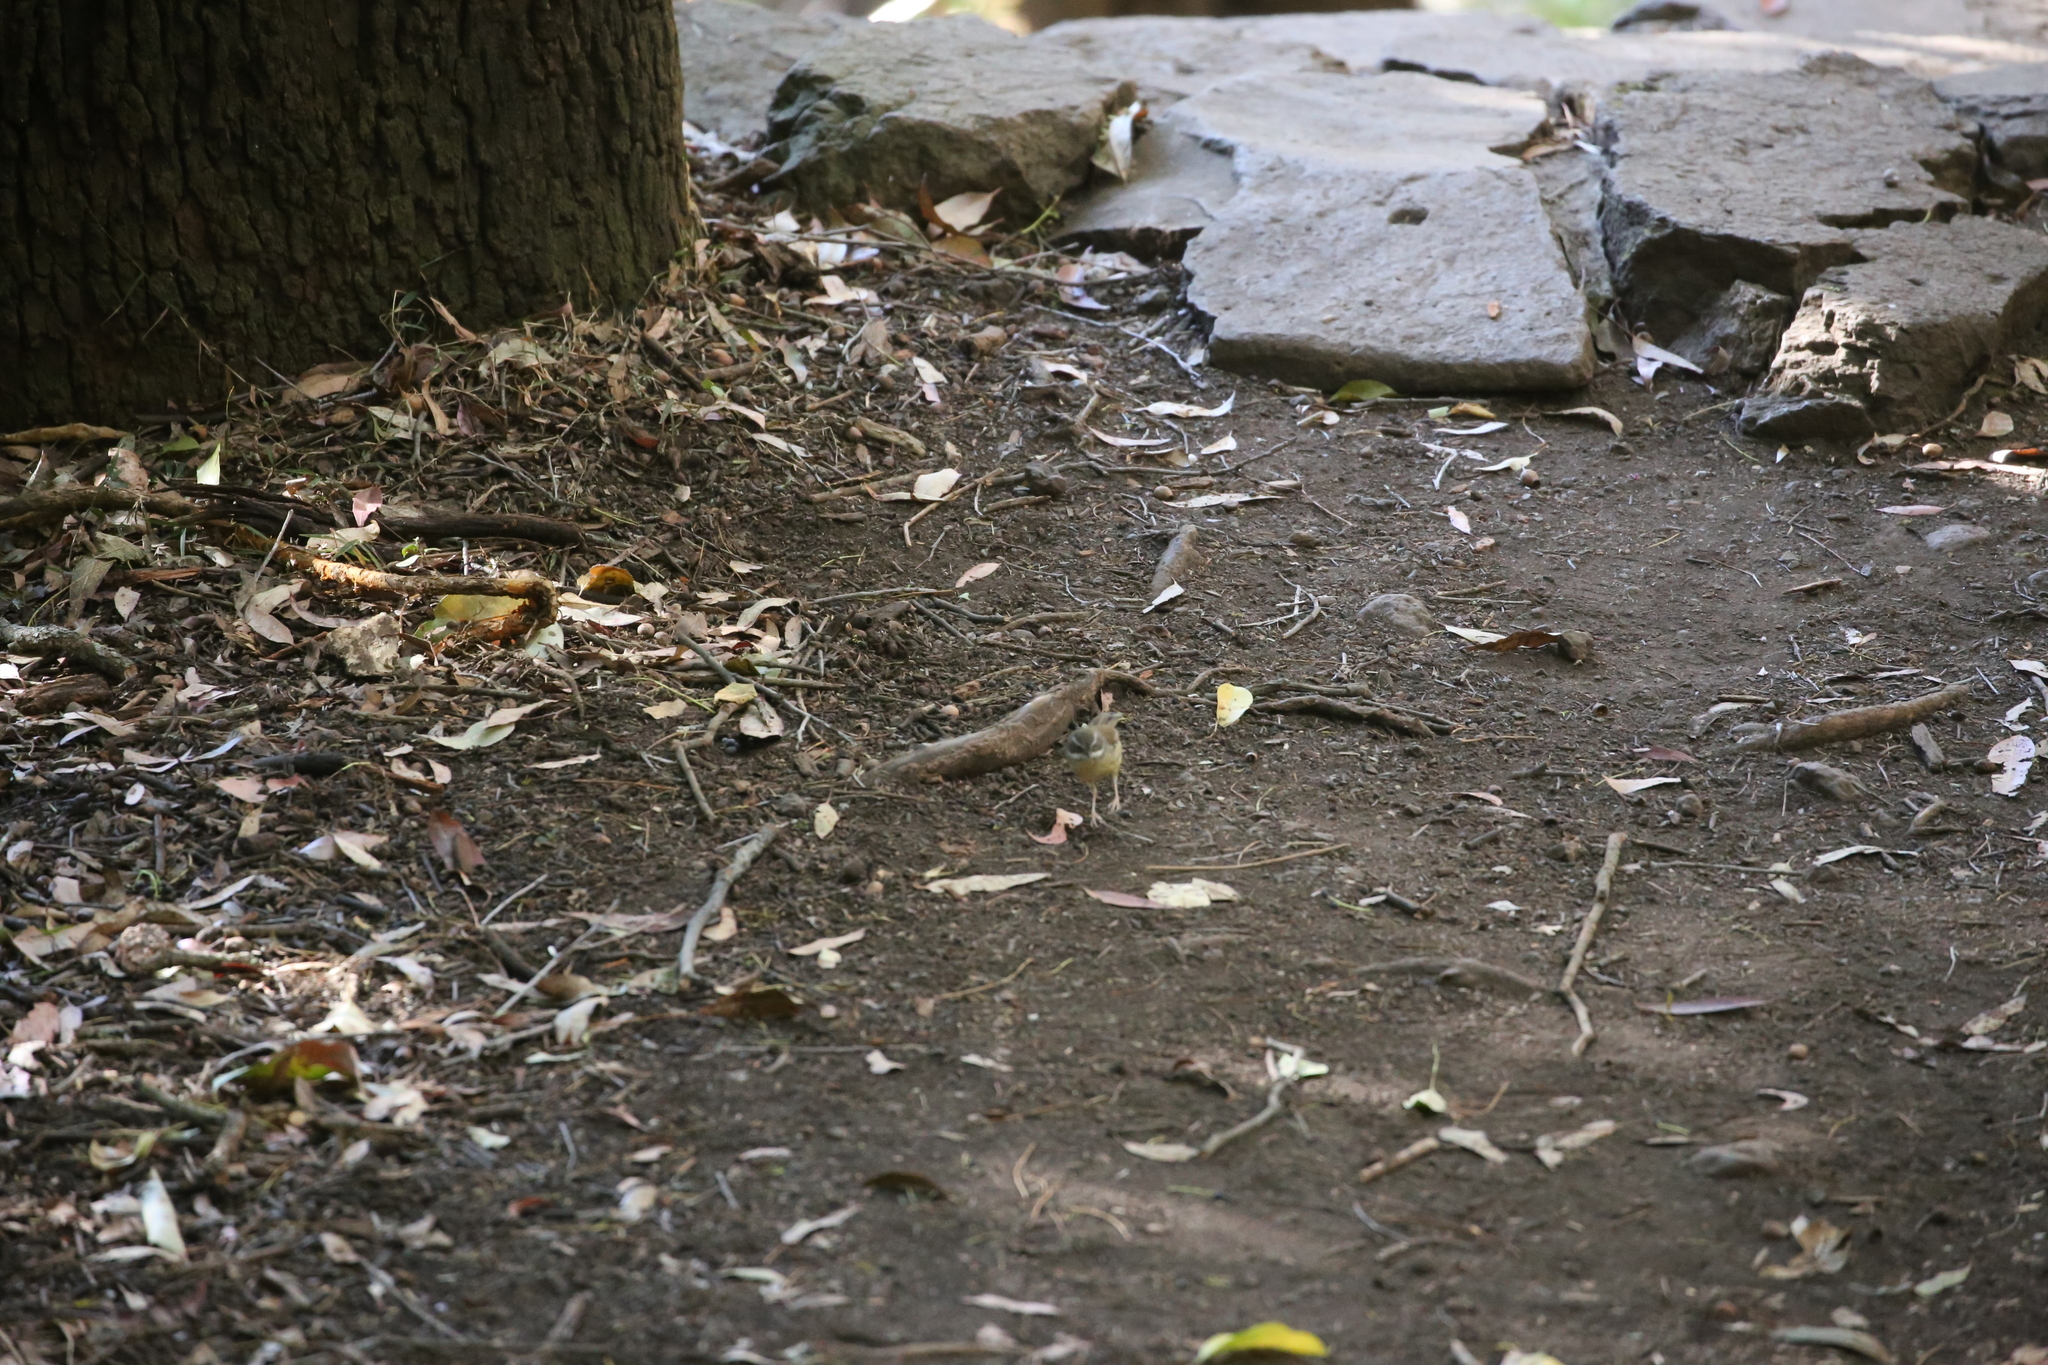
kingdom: Animalia
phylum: Chordata
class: Aves
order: Passeriformes
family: Acanthizidae
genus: Sericornis
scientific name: Sericornis frontalis
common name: White-browed scrubwren
